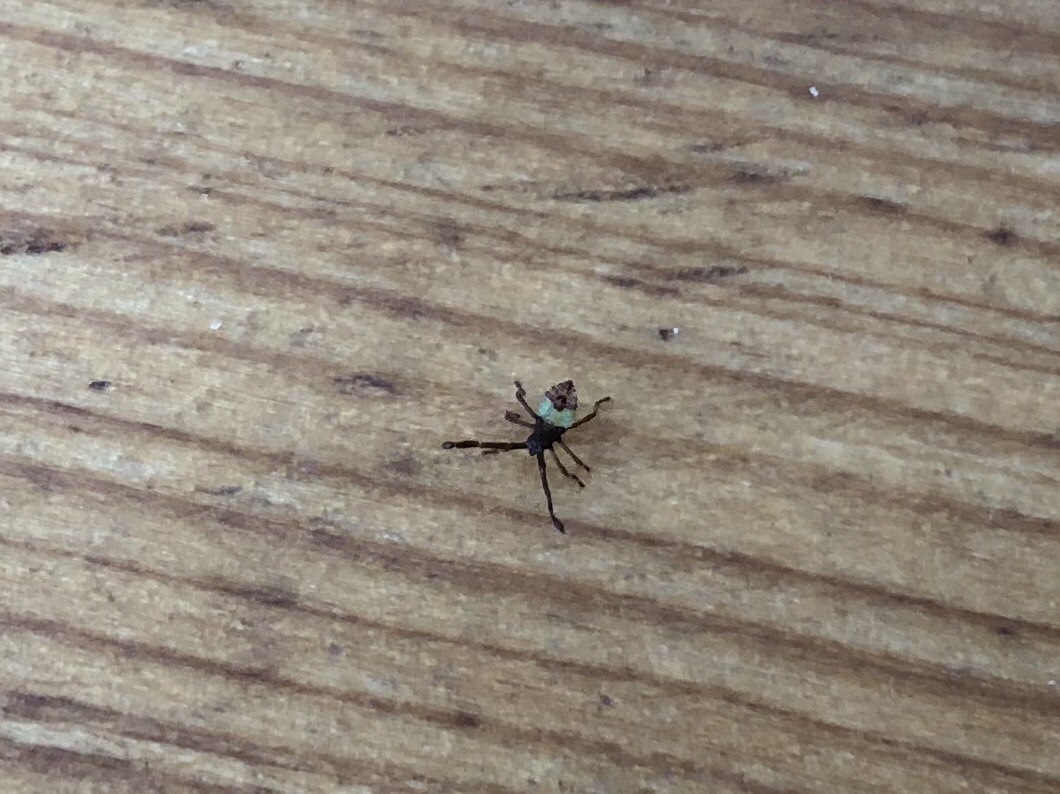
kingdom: Animalia
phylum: Arthropoda
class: Insecta
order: Hemiptera
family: Coreidae
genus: Gonocerus
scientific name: Gonocerus acuteangulatus
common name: Box bug
